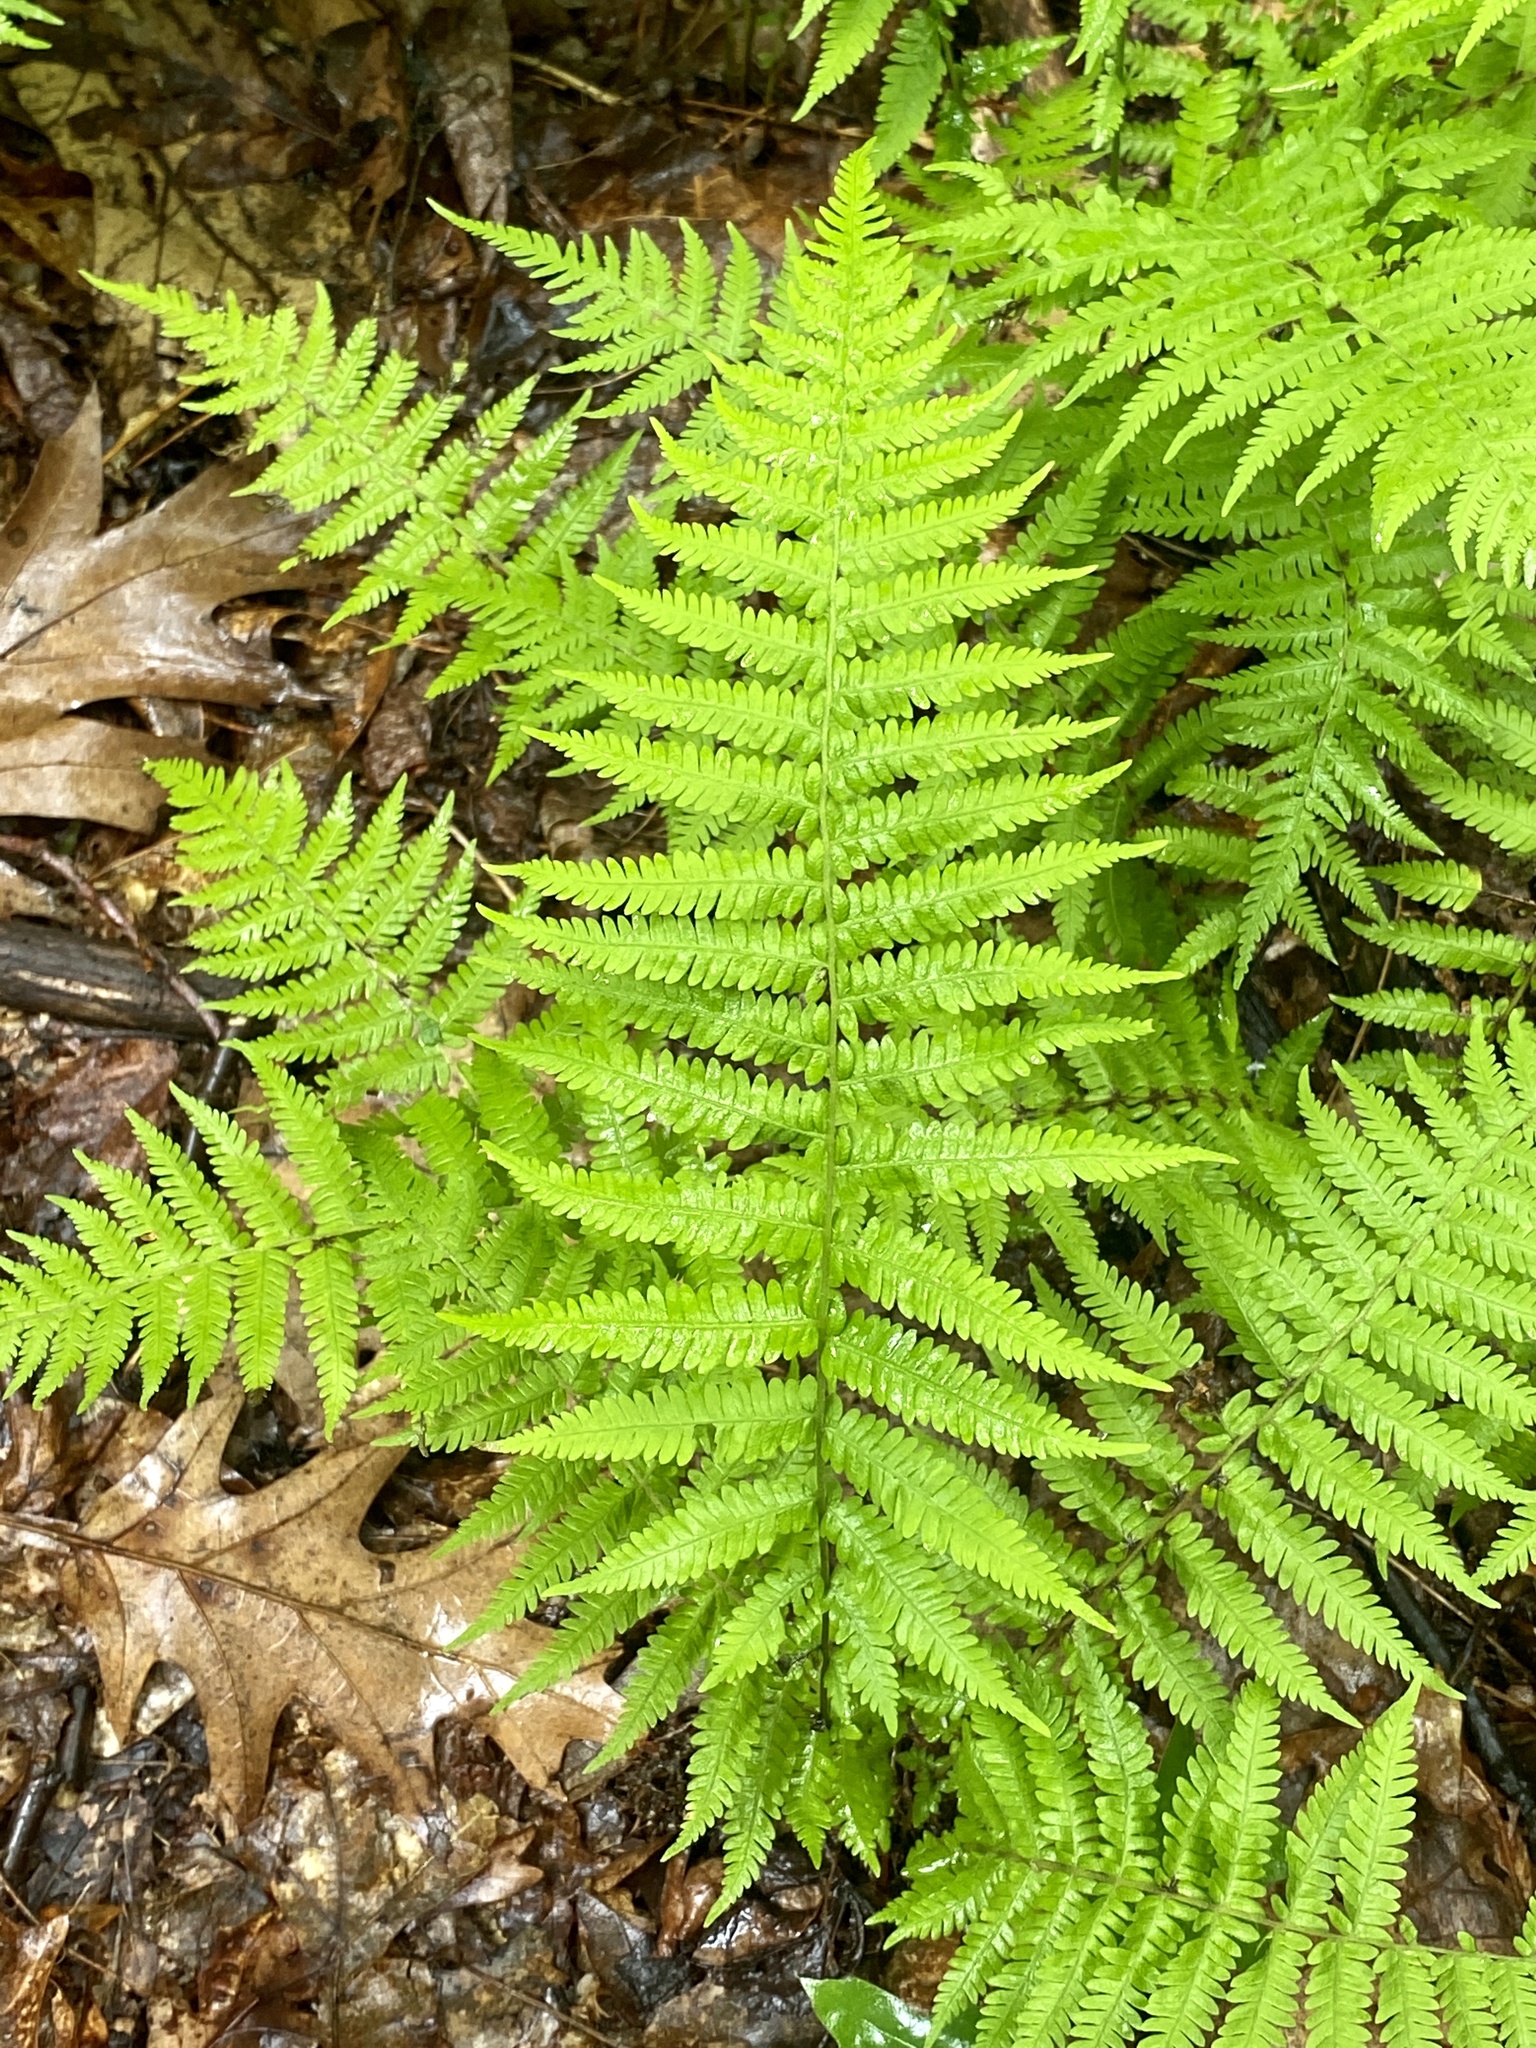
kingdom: Plantae
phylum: Tracheophyta
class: Polypodiopsida
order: Polypodiales
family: Thelypteridaceae
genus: Amauropelta
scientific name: Amauropelta noveboracensis
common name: New york fern
